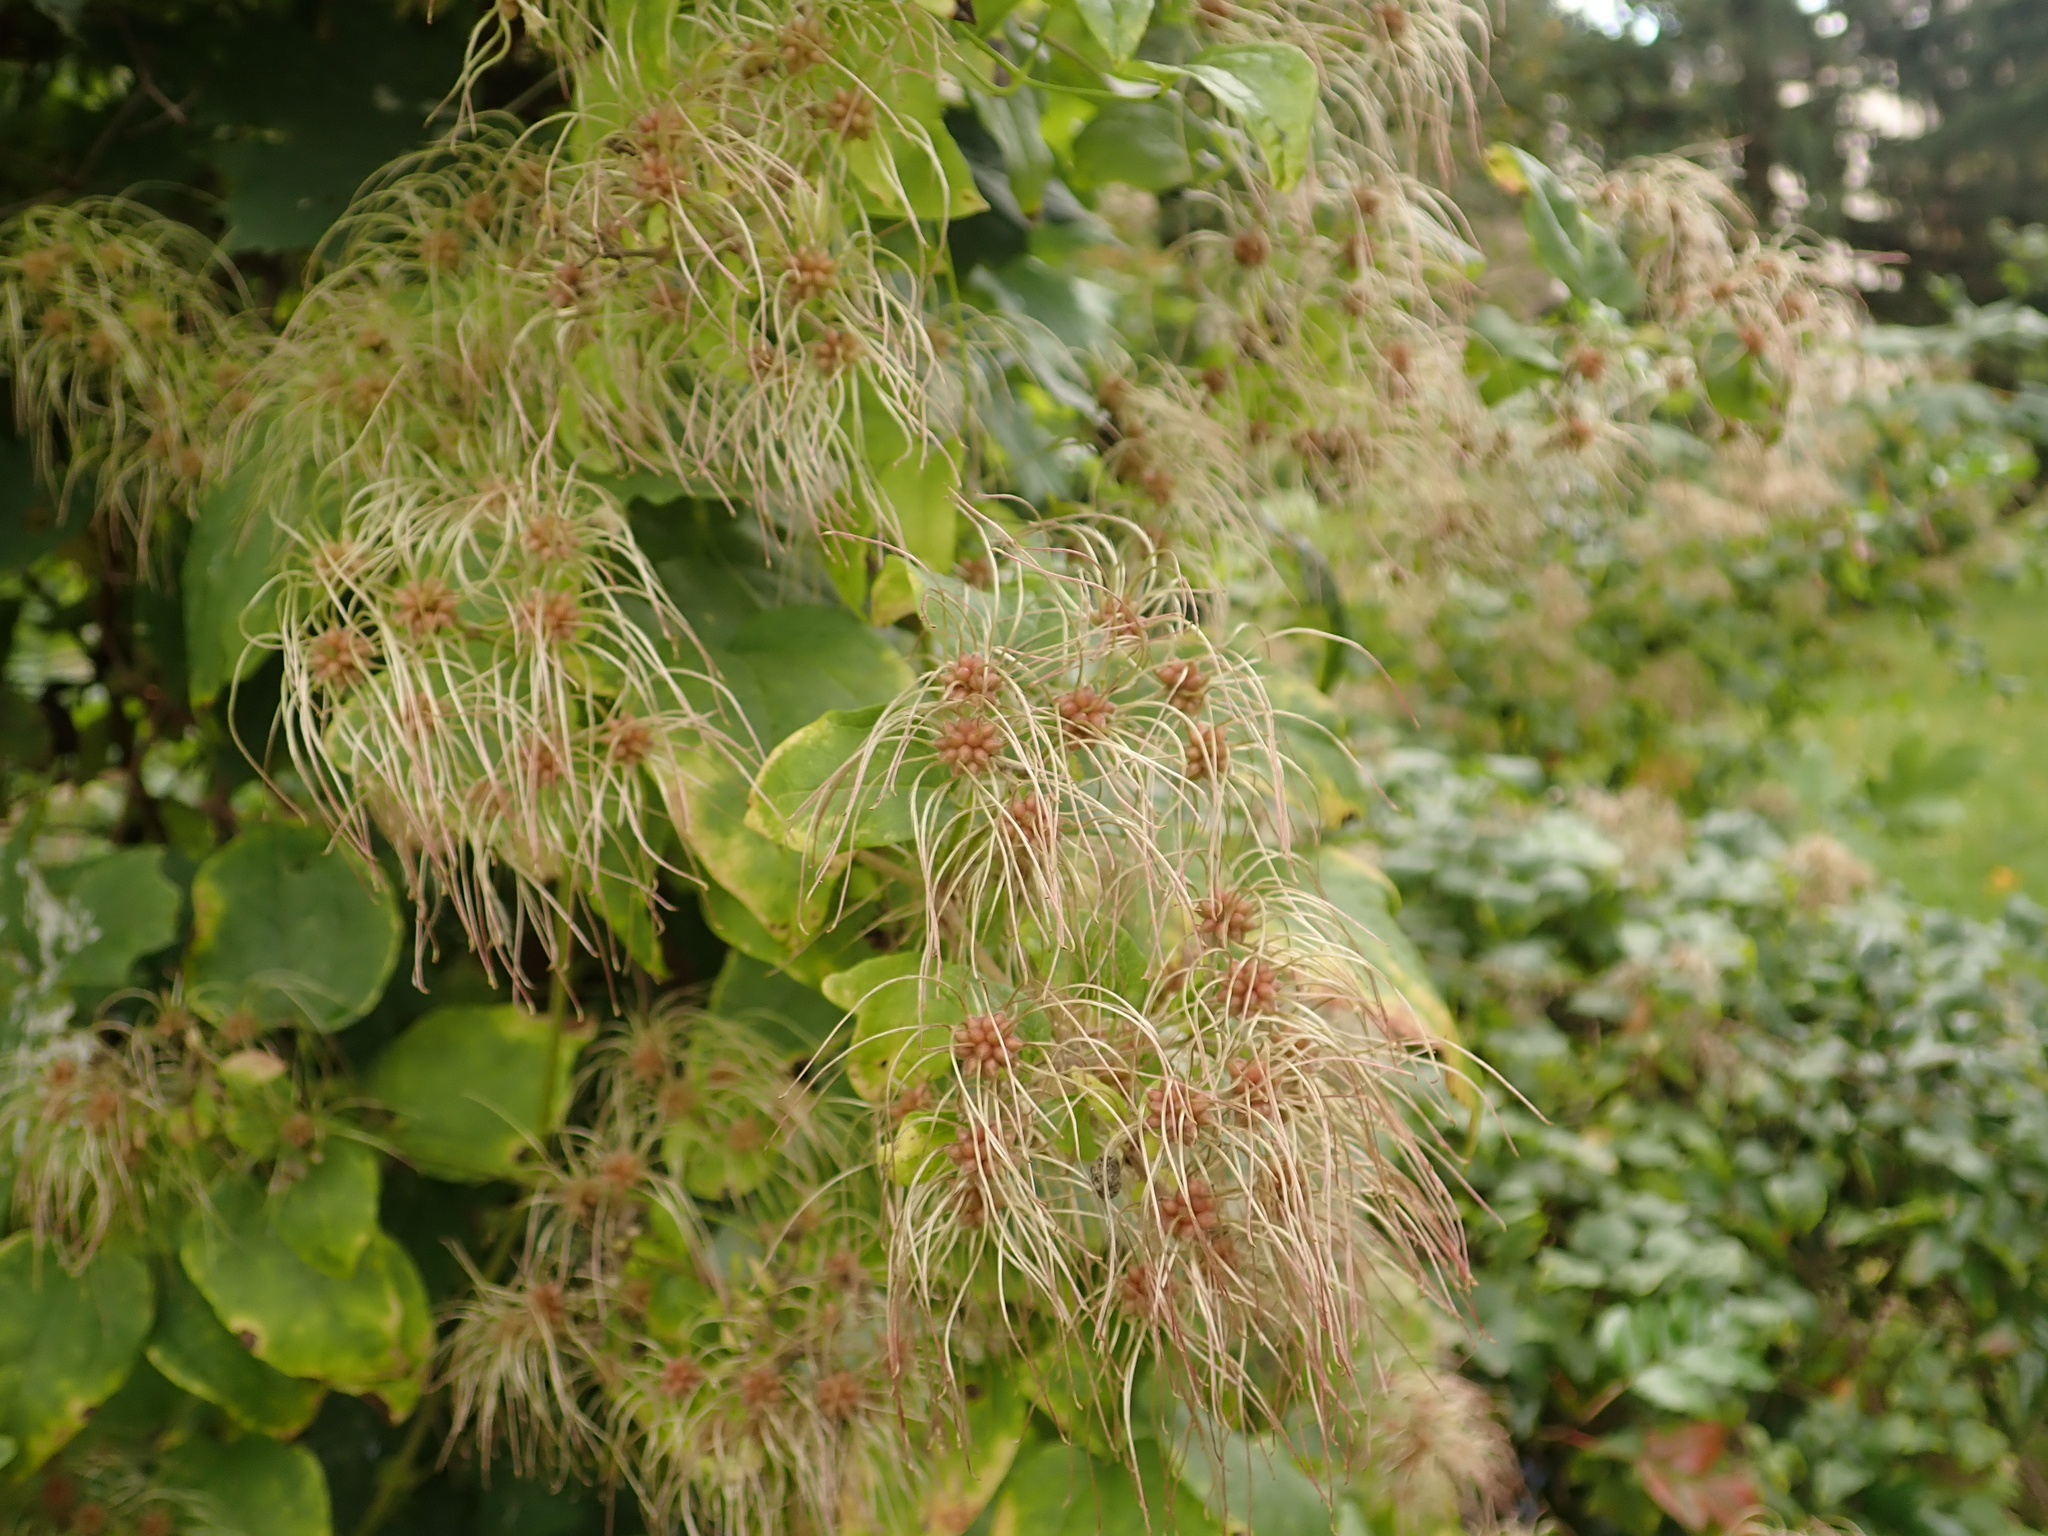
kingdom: Plantae
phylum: Tracheophyta
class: Magnoliopsida
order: Ranunculales
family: Ranunculaceae
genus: Clematis
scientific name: Clematis vitalba
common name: Evergreen clematis
